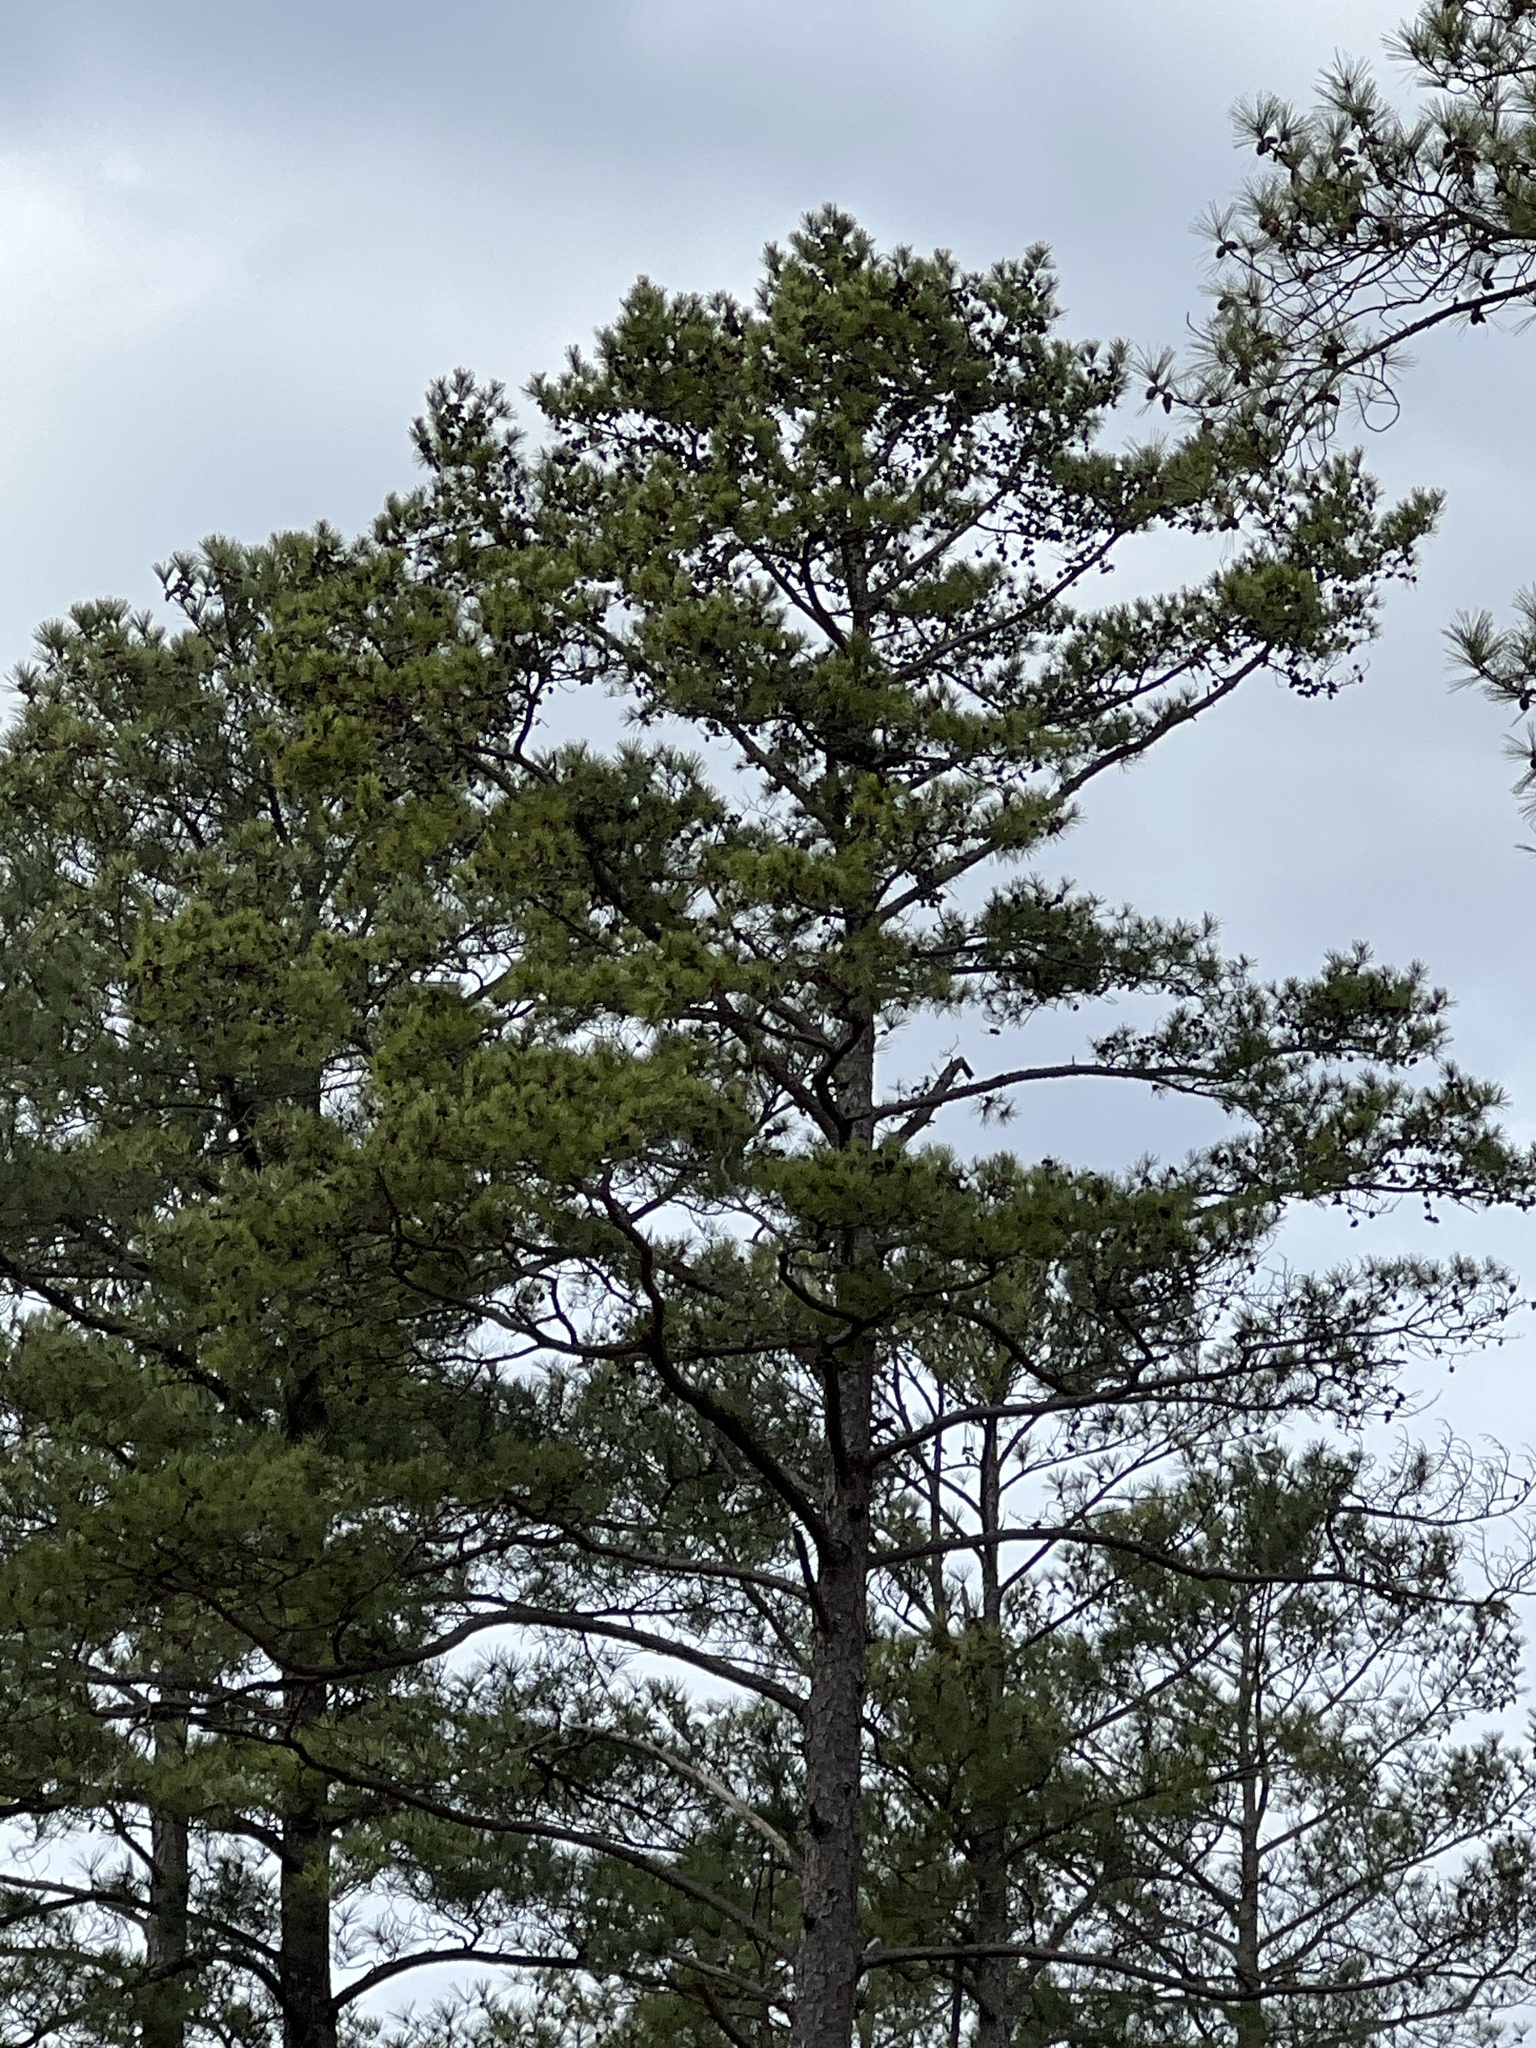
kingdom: Plantae
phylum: Tracheophyta
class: Pinopsida
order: Pinales
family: Pinaceae
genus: Pinus
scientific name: Pinus echinata
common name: Shortleaf pine
